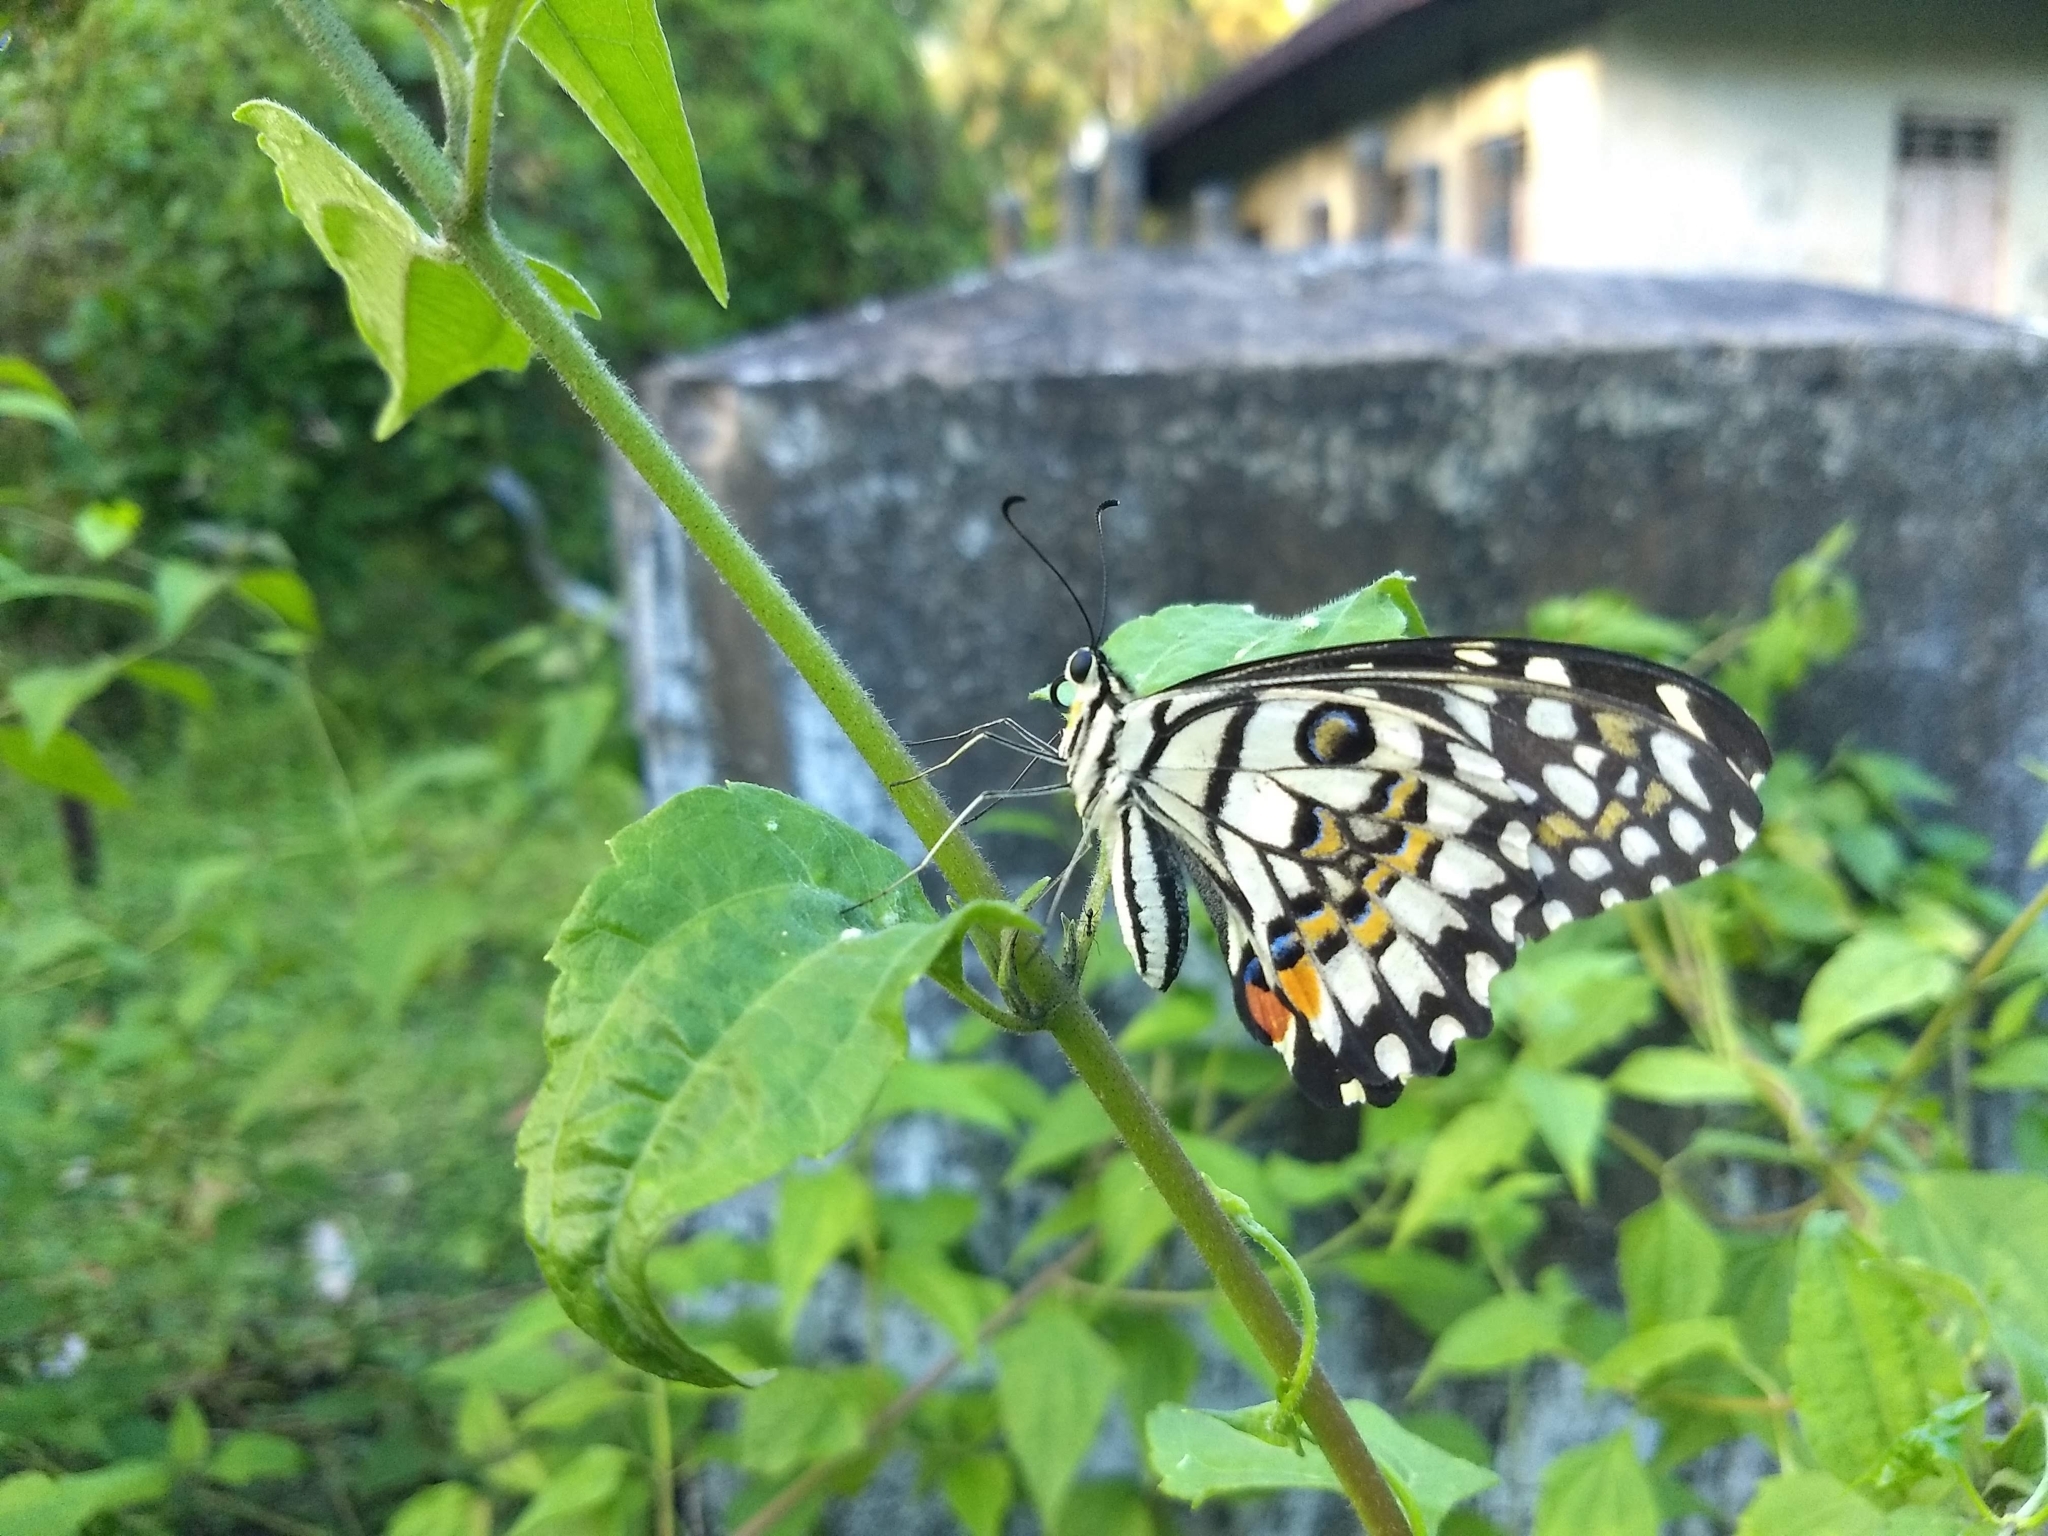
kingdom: Animalia
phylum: Arthropoda
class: Insecta
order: Lepidoptera
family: Papilionidae
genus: Papilio
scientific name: Papilio demoleus
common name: Lime butterfly
